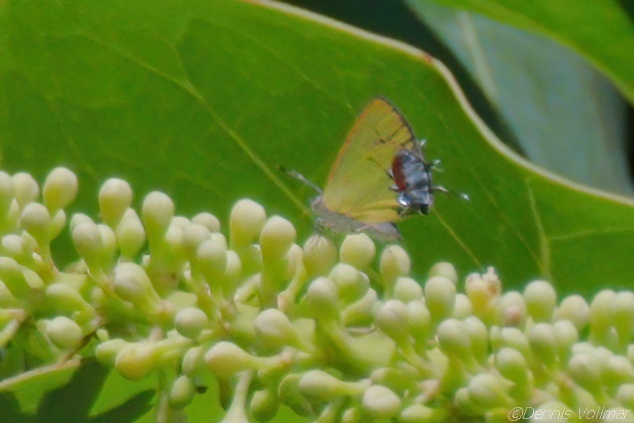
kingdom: Animalia
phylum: Arthropoda
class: Insecta
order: Lepidoptera
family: Lycaenidae
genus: Thecla
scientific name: Thecla maesites
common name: Verde azul hairstreak
